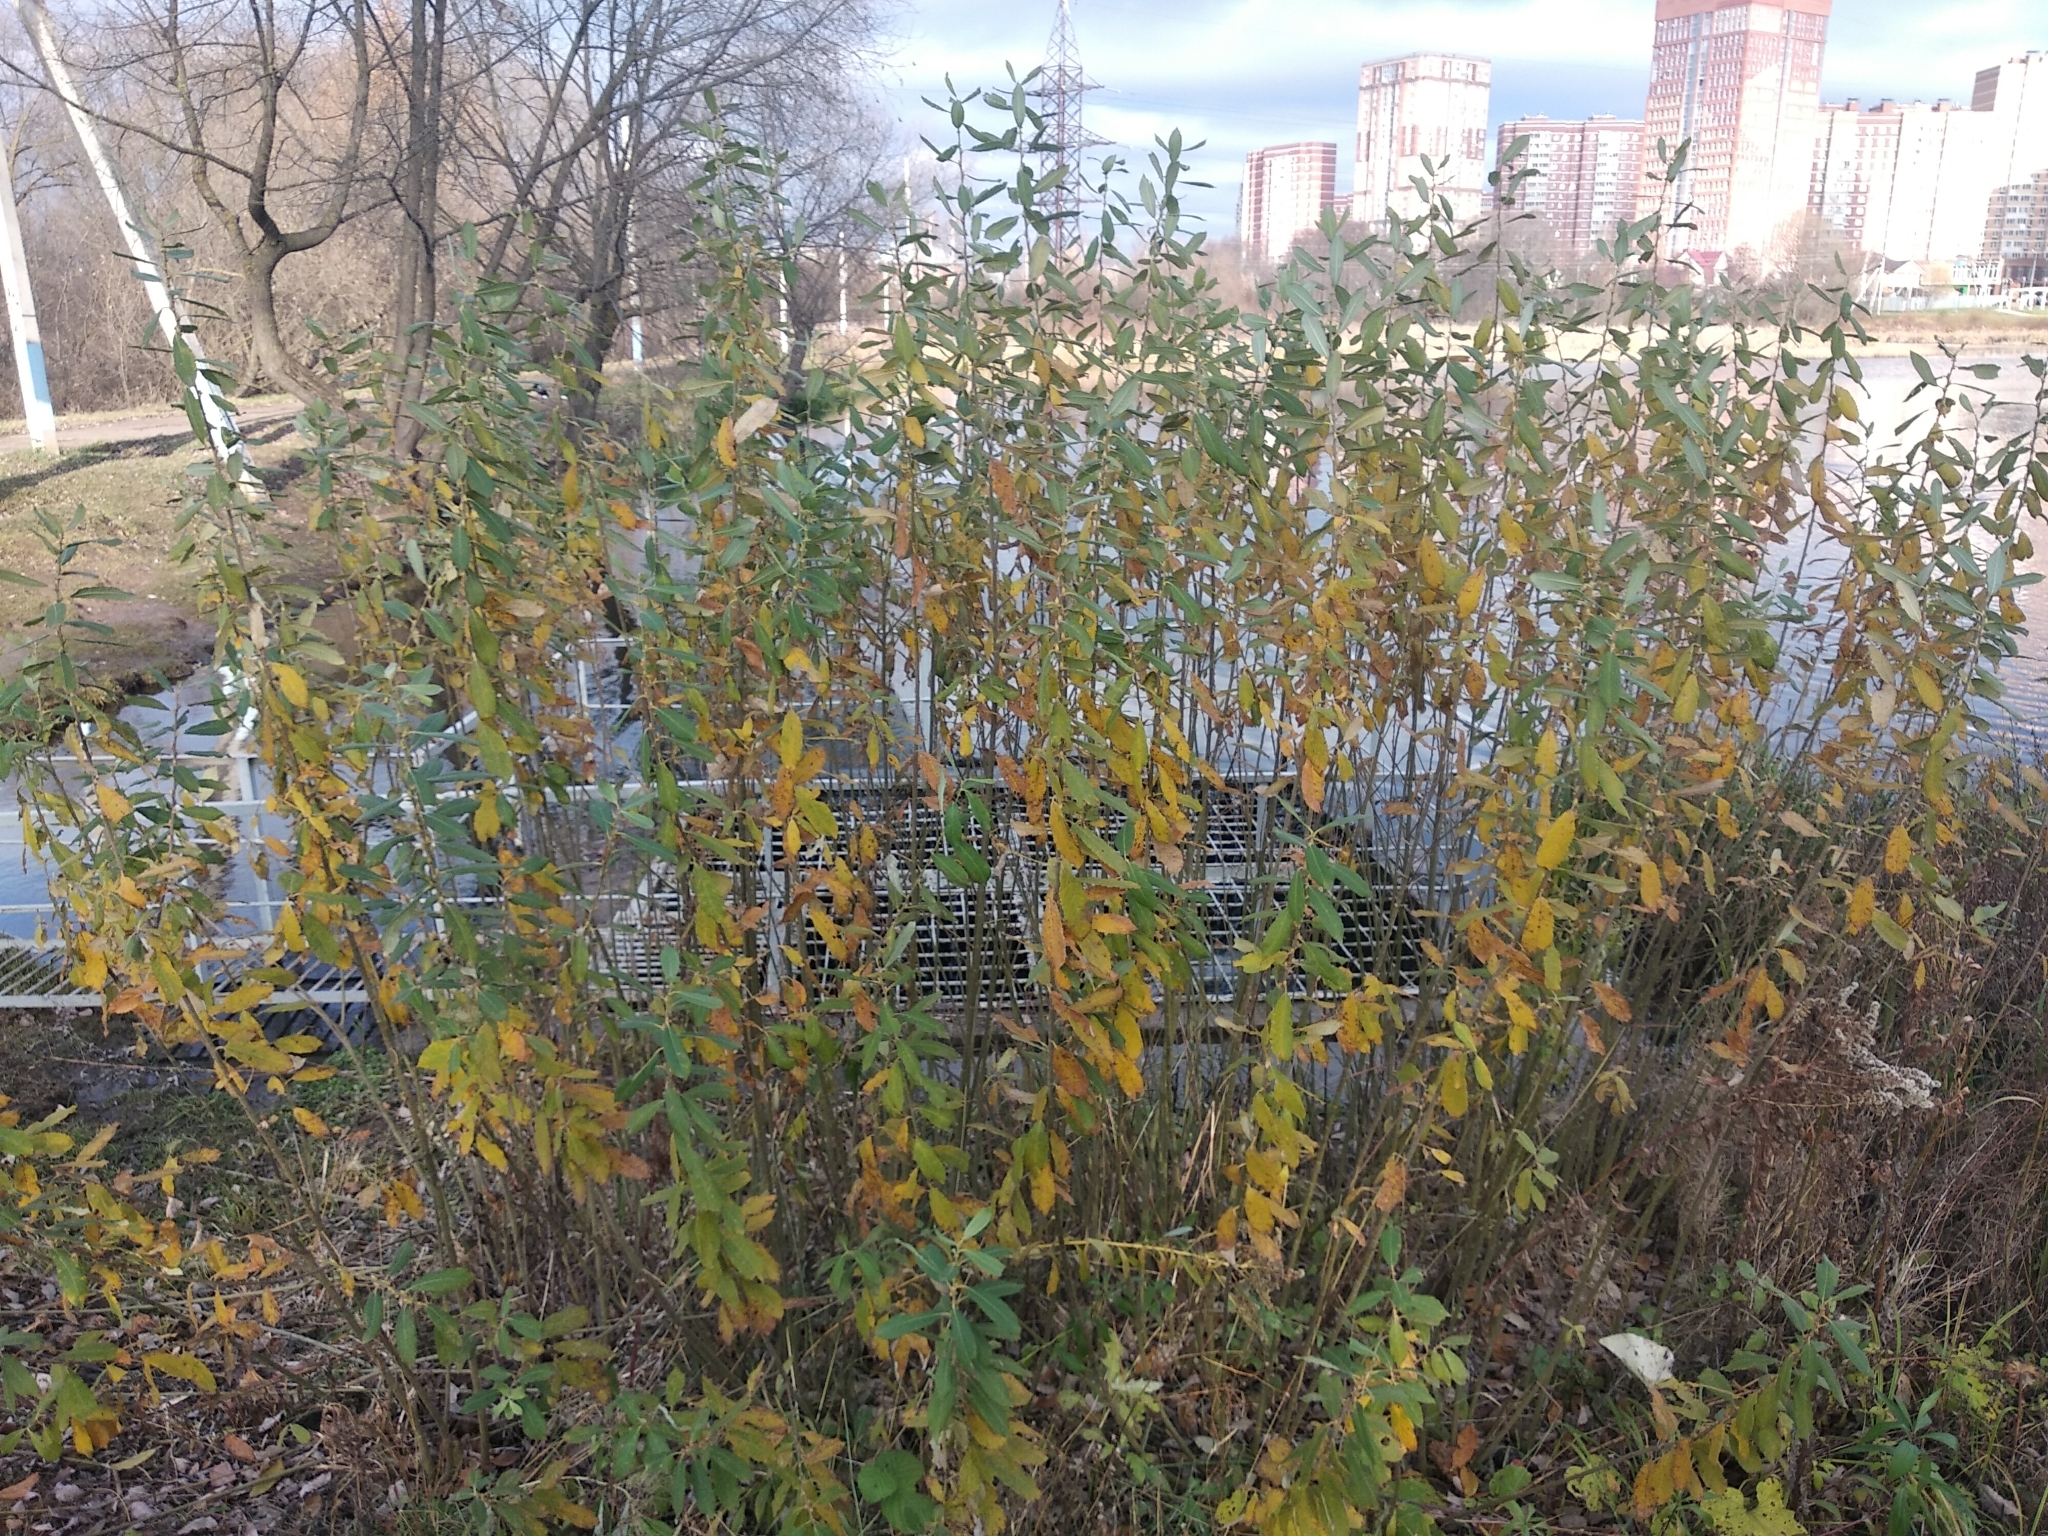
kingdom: Plantae
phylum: Tracheophyta
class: Magnoliopsida
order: Malpighiales
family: Salicaceae
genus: Salix
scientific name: Salix cinerea
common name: Common sallow
